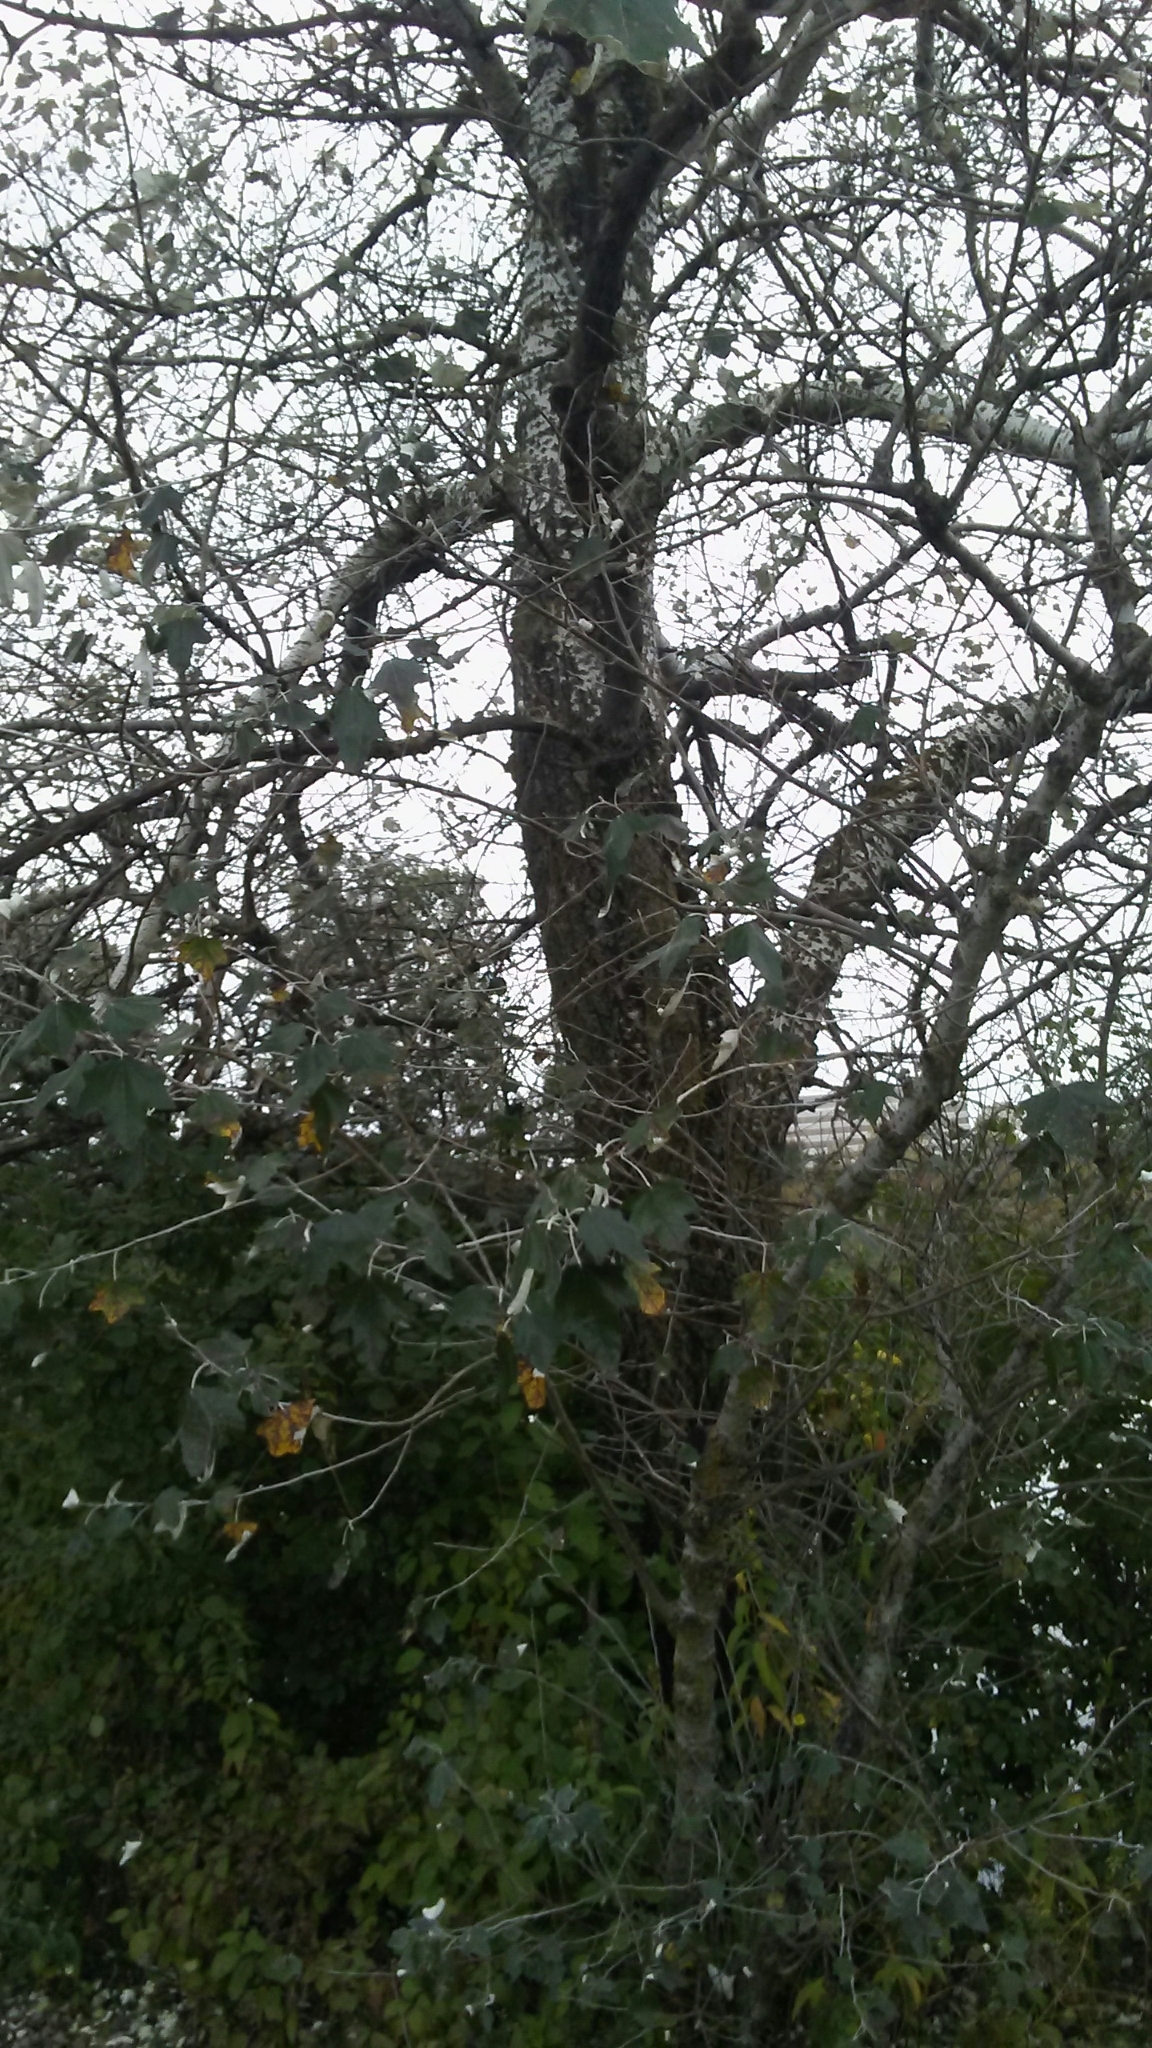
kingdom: Plantae
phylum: Tracheophyta
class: Magnoliopsida
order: Malpighiales
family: Salicaceae
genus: Populus
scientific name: Populus alba
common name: White poplar
